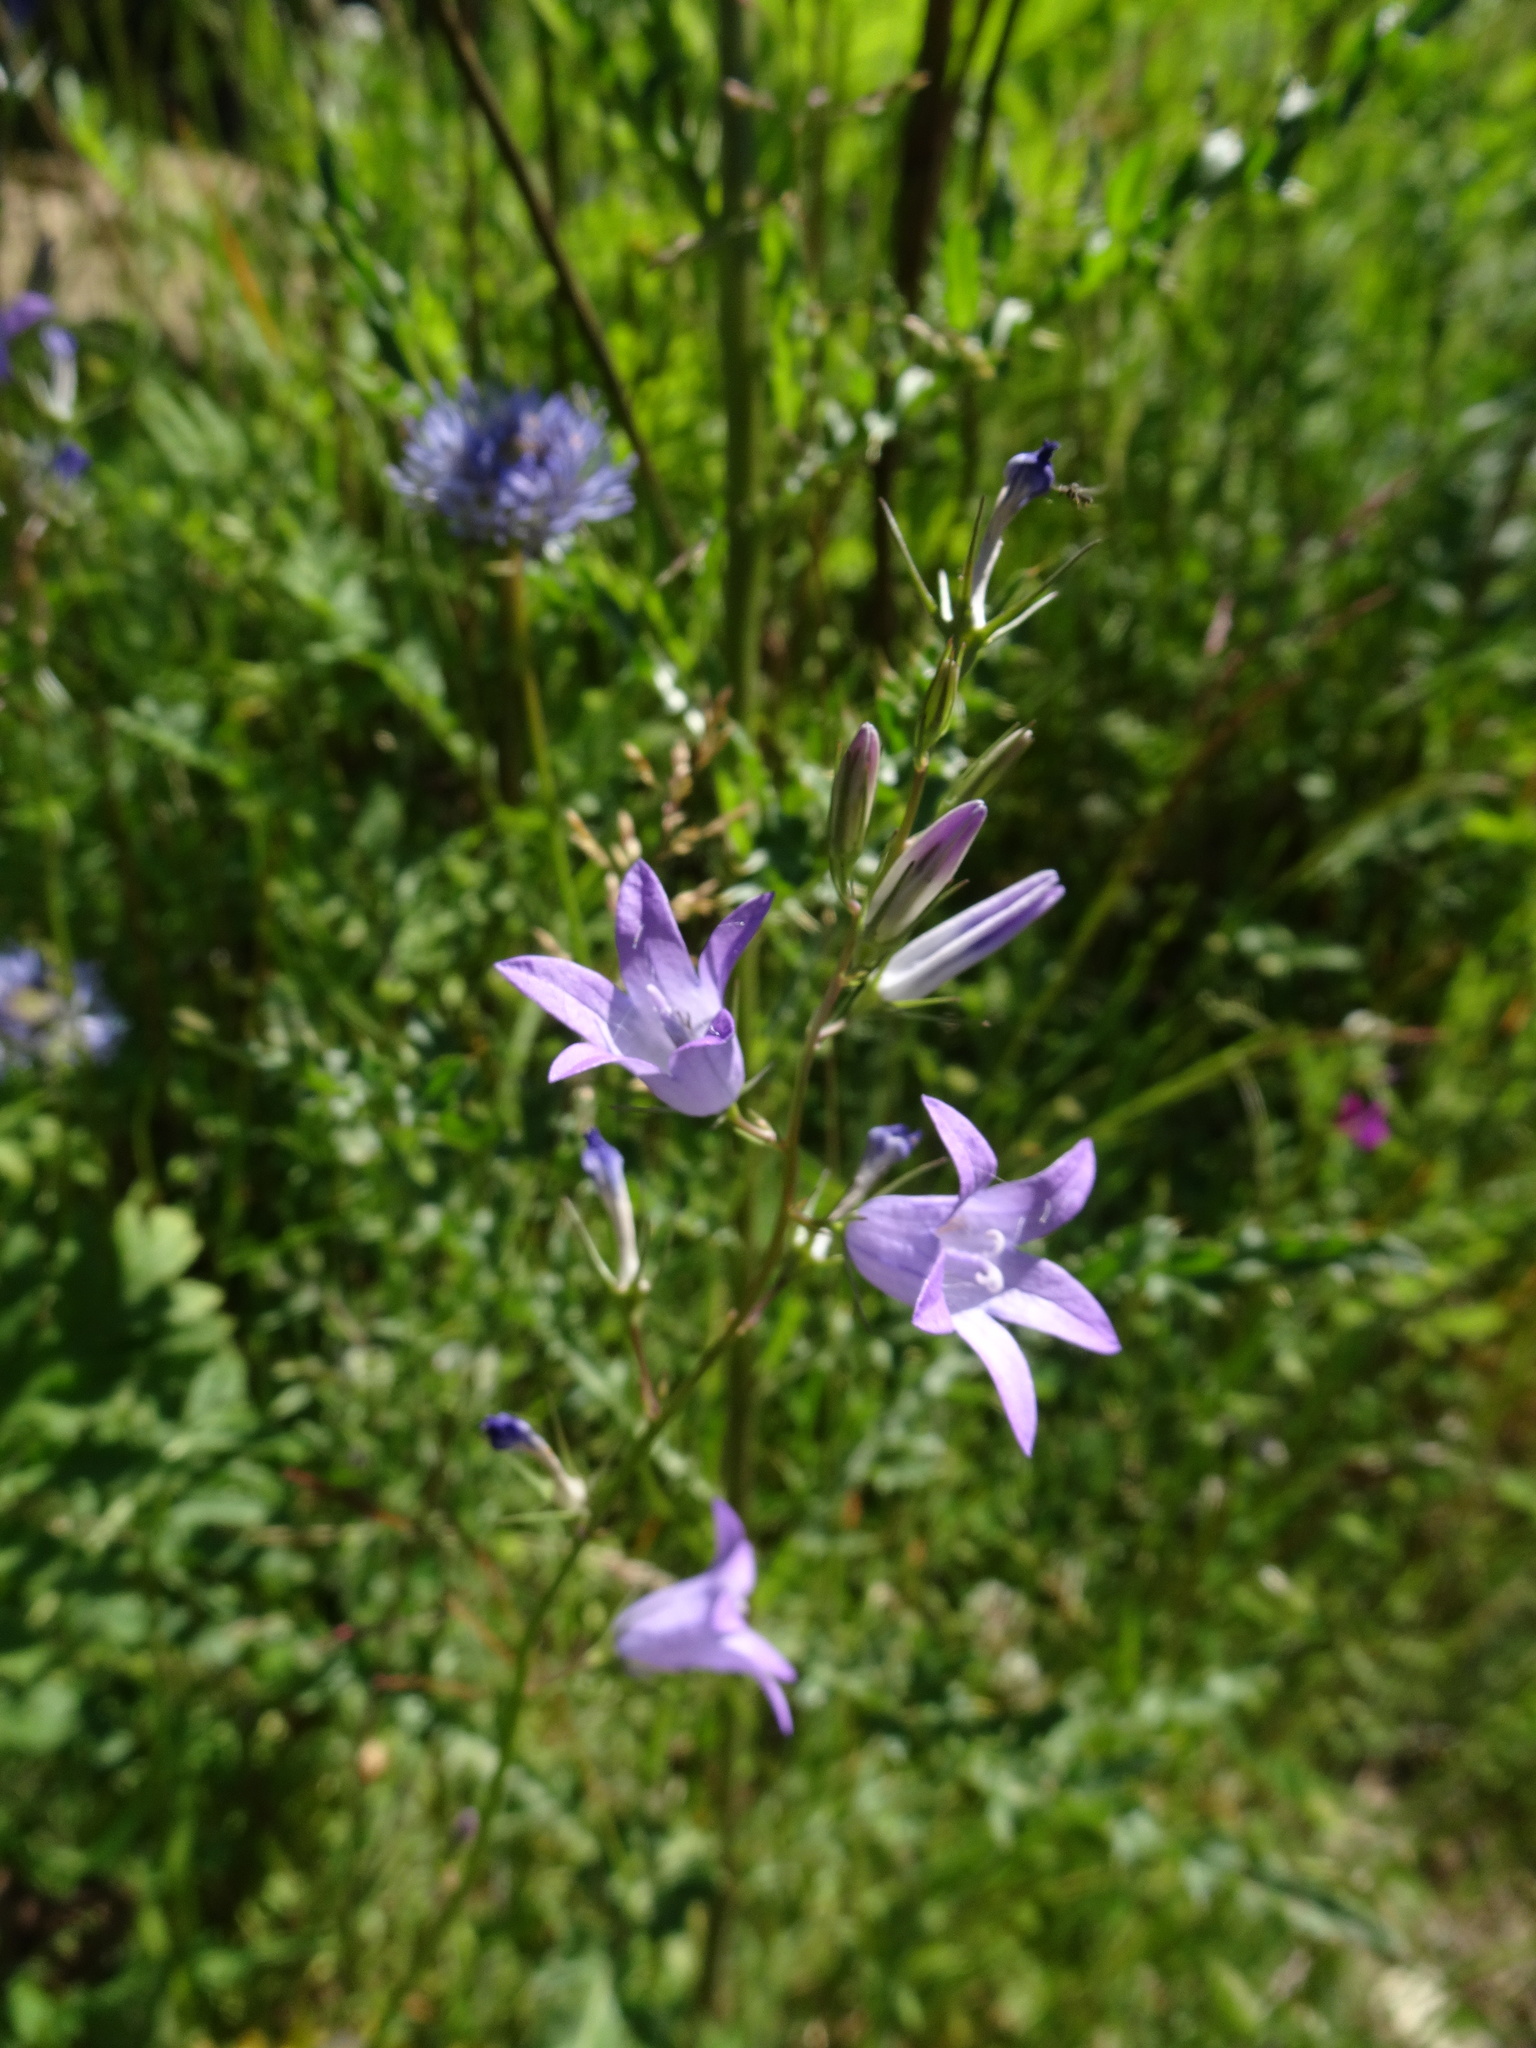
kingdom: Plantae
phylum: Tracheophyta
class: Magnoliopsida
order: Asterales
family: Campanulaceae
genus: Campanula
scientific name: Campanula rapunculus
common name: Rampion bellflower
